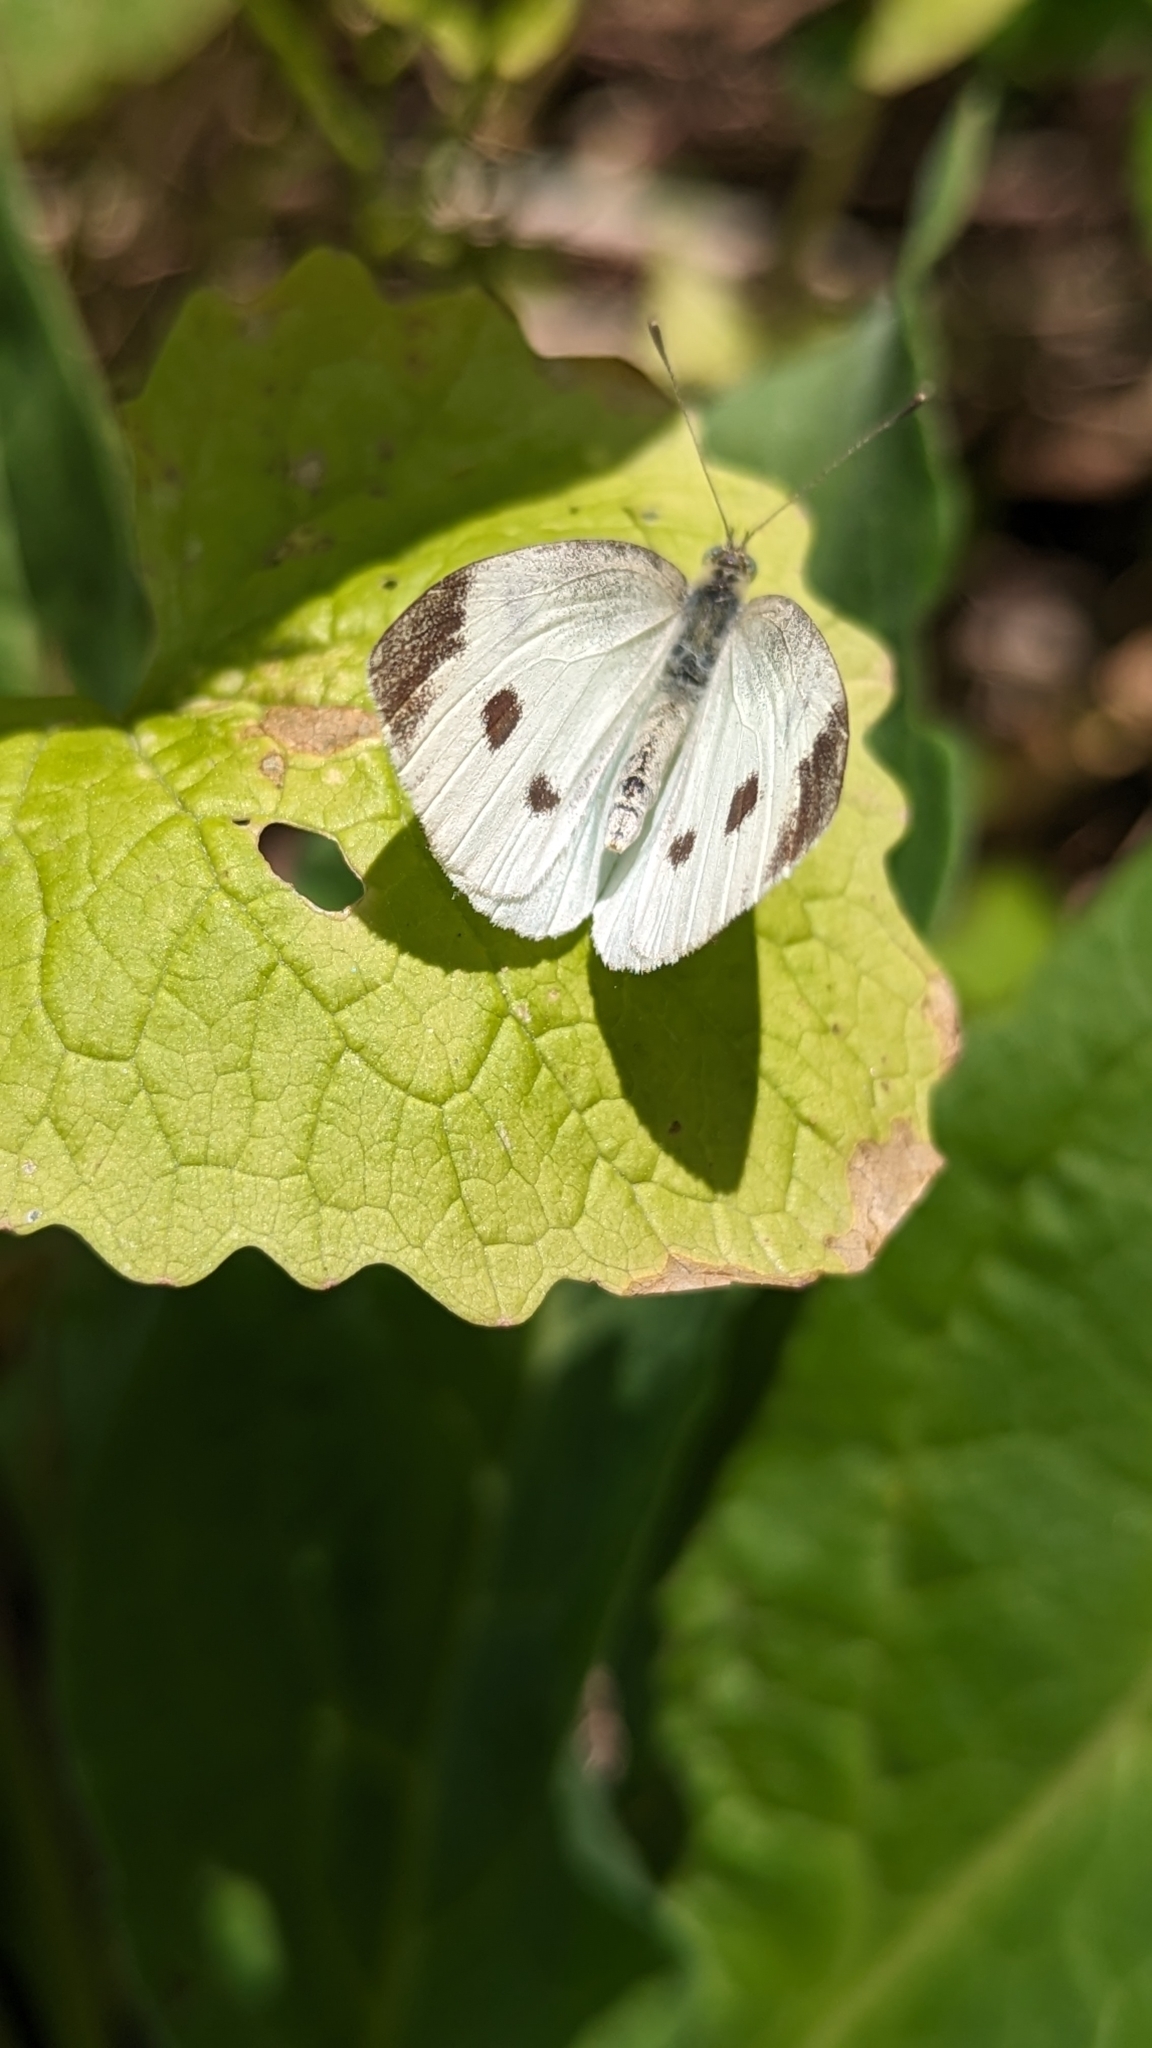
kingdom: Animalia
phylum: Arthropoda
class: Insecta
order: Lepidoptera
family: Pieridae
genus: Pieris
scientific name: Pieris rapae
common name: Small white
